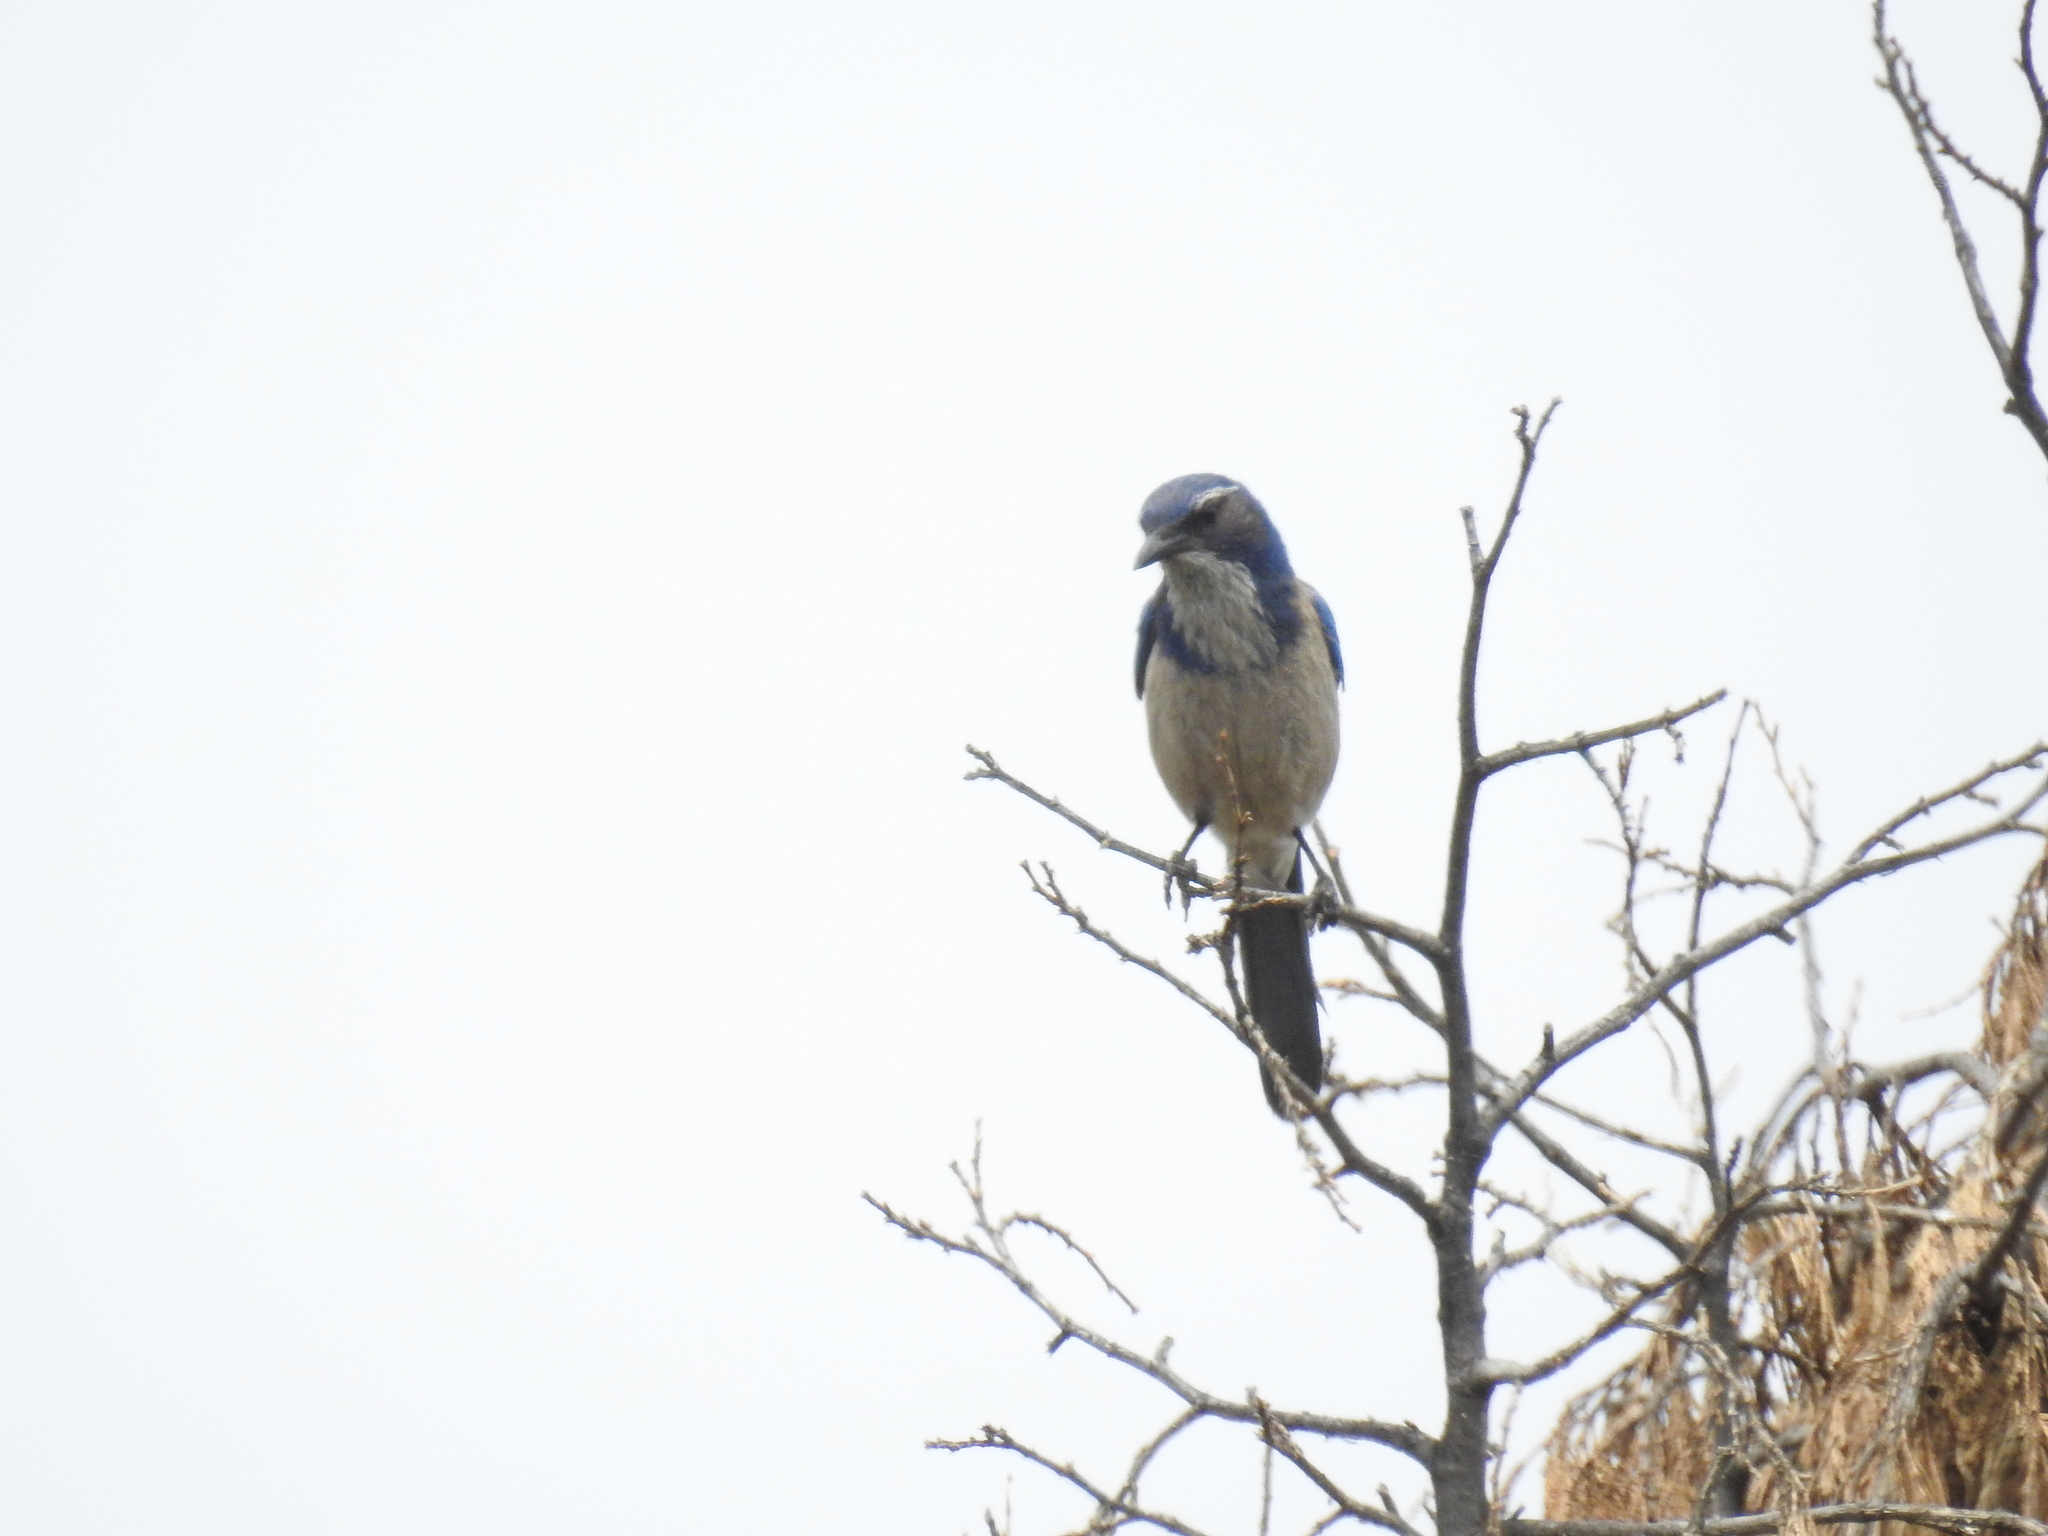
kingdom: Animalia
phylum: Chordata
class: Aves
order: Passeriformes
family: Corvidae
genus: Aphelocoma
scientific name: Aphelocoma californica
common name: California scrub-jay
